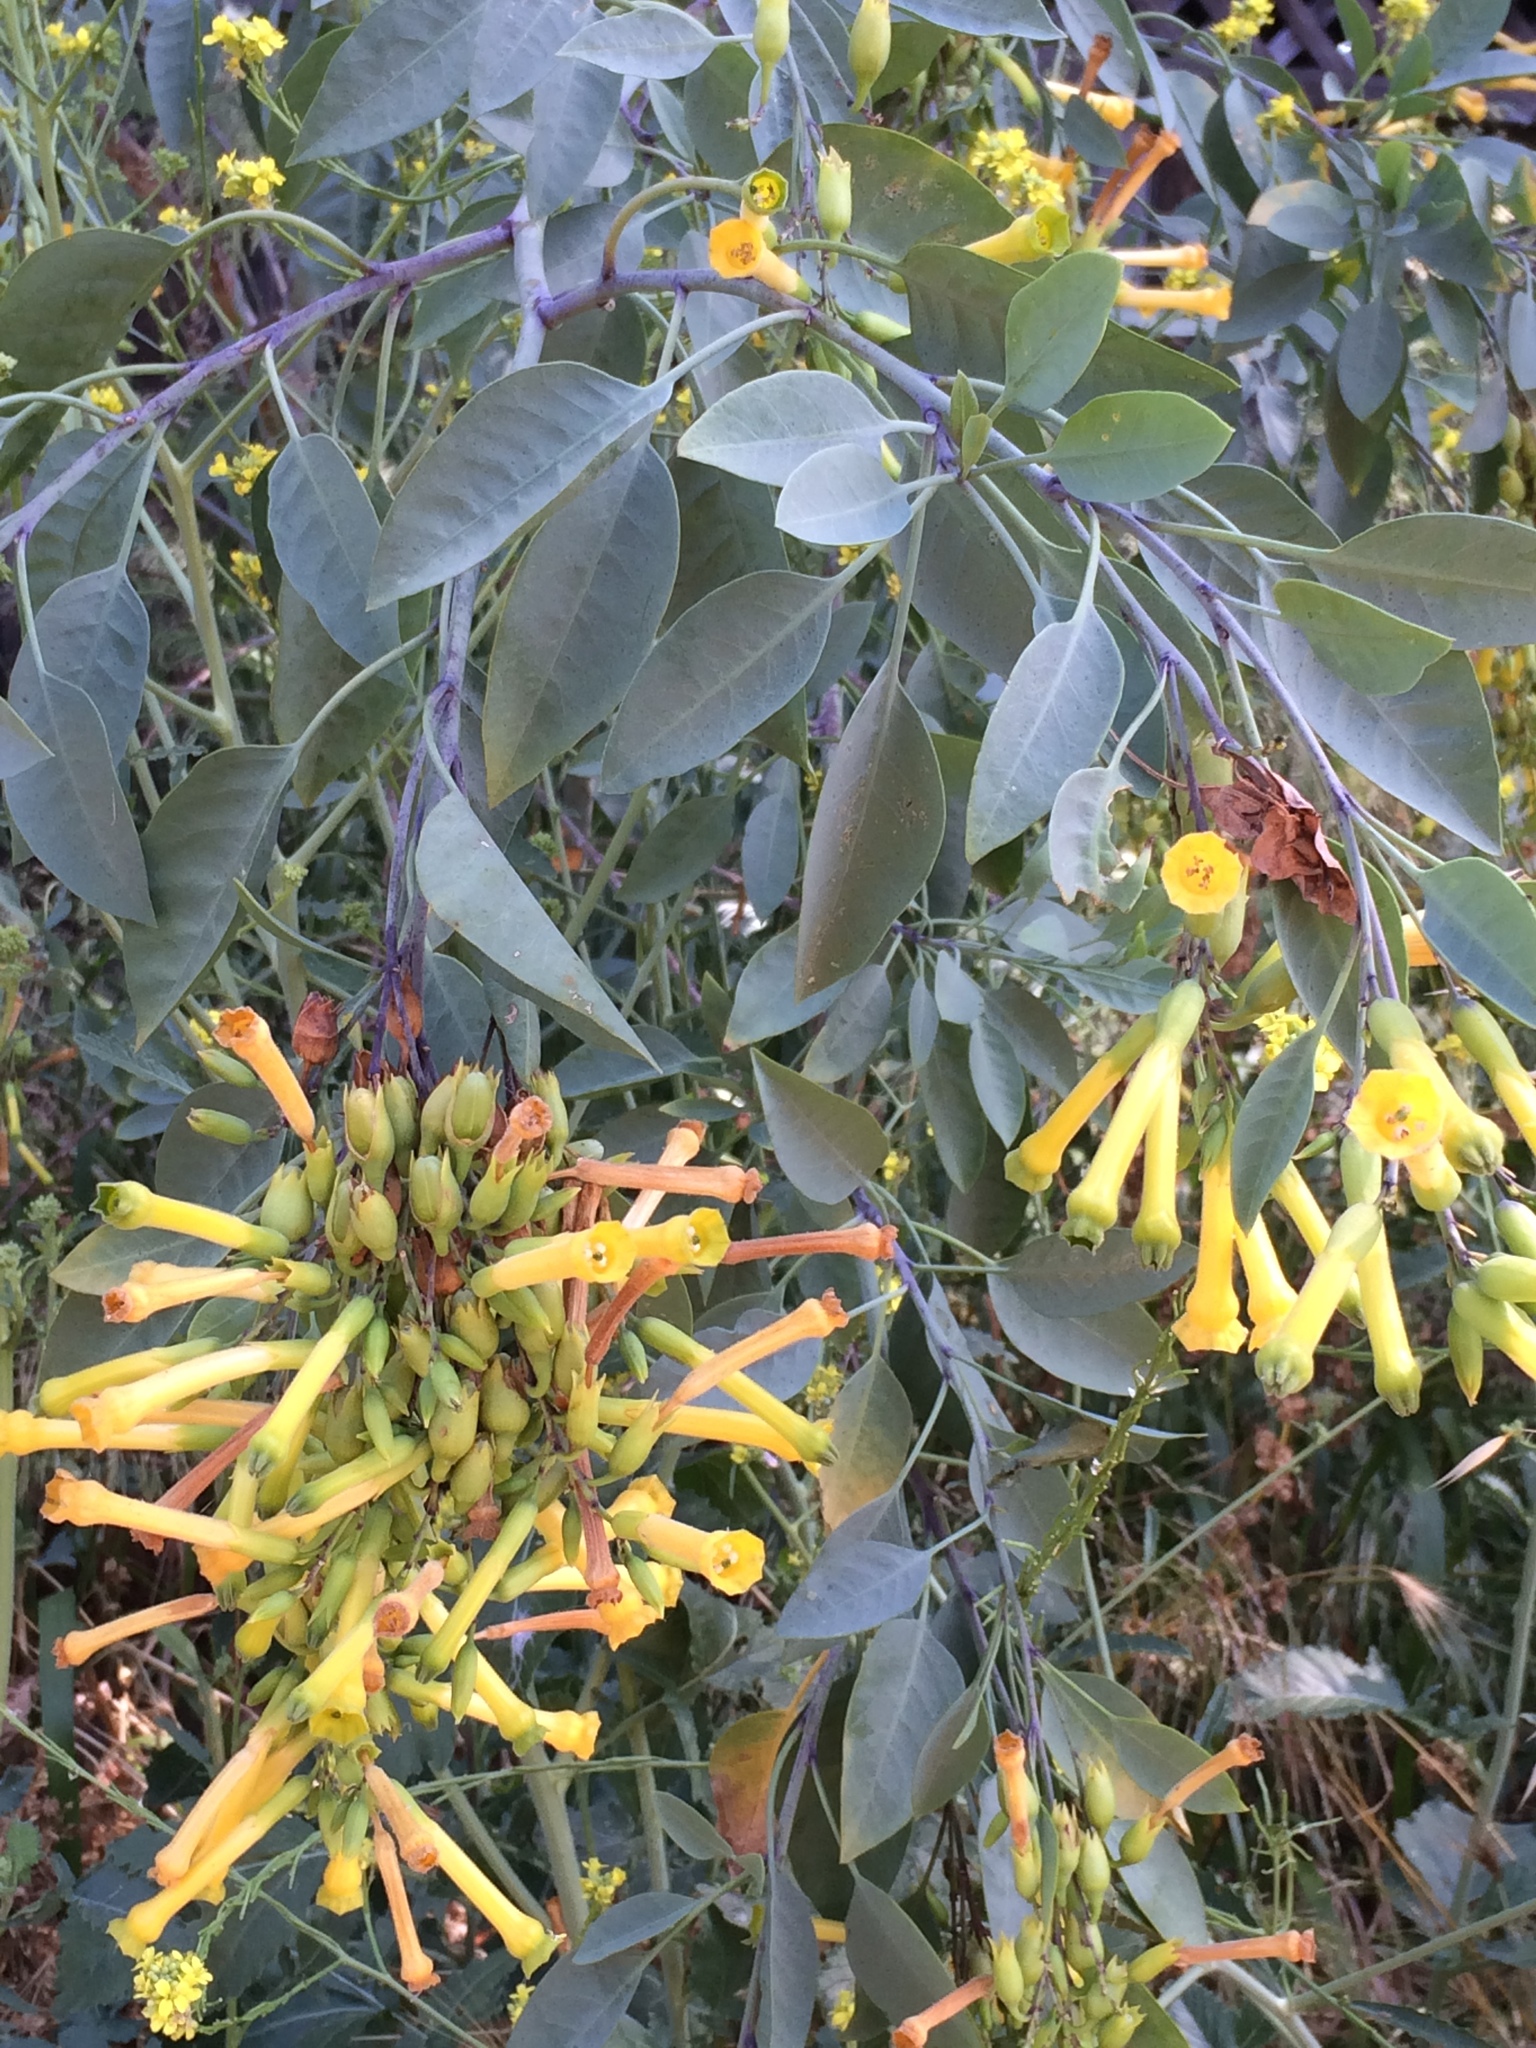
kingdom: Plantae
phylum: Tracheophyta
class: Magnoliopsida
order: Solanales
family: Solanaceae
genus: Nicotiana
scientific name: Nicotiana glauca
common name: Tree tobacco
